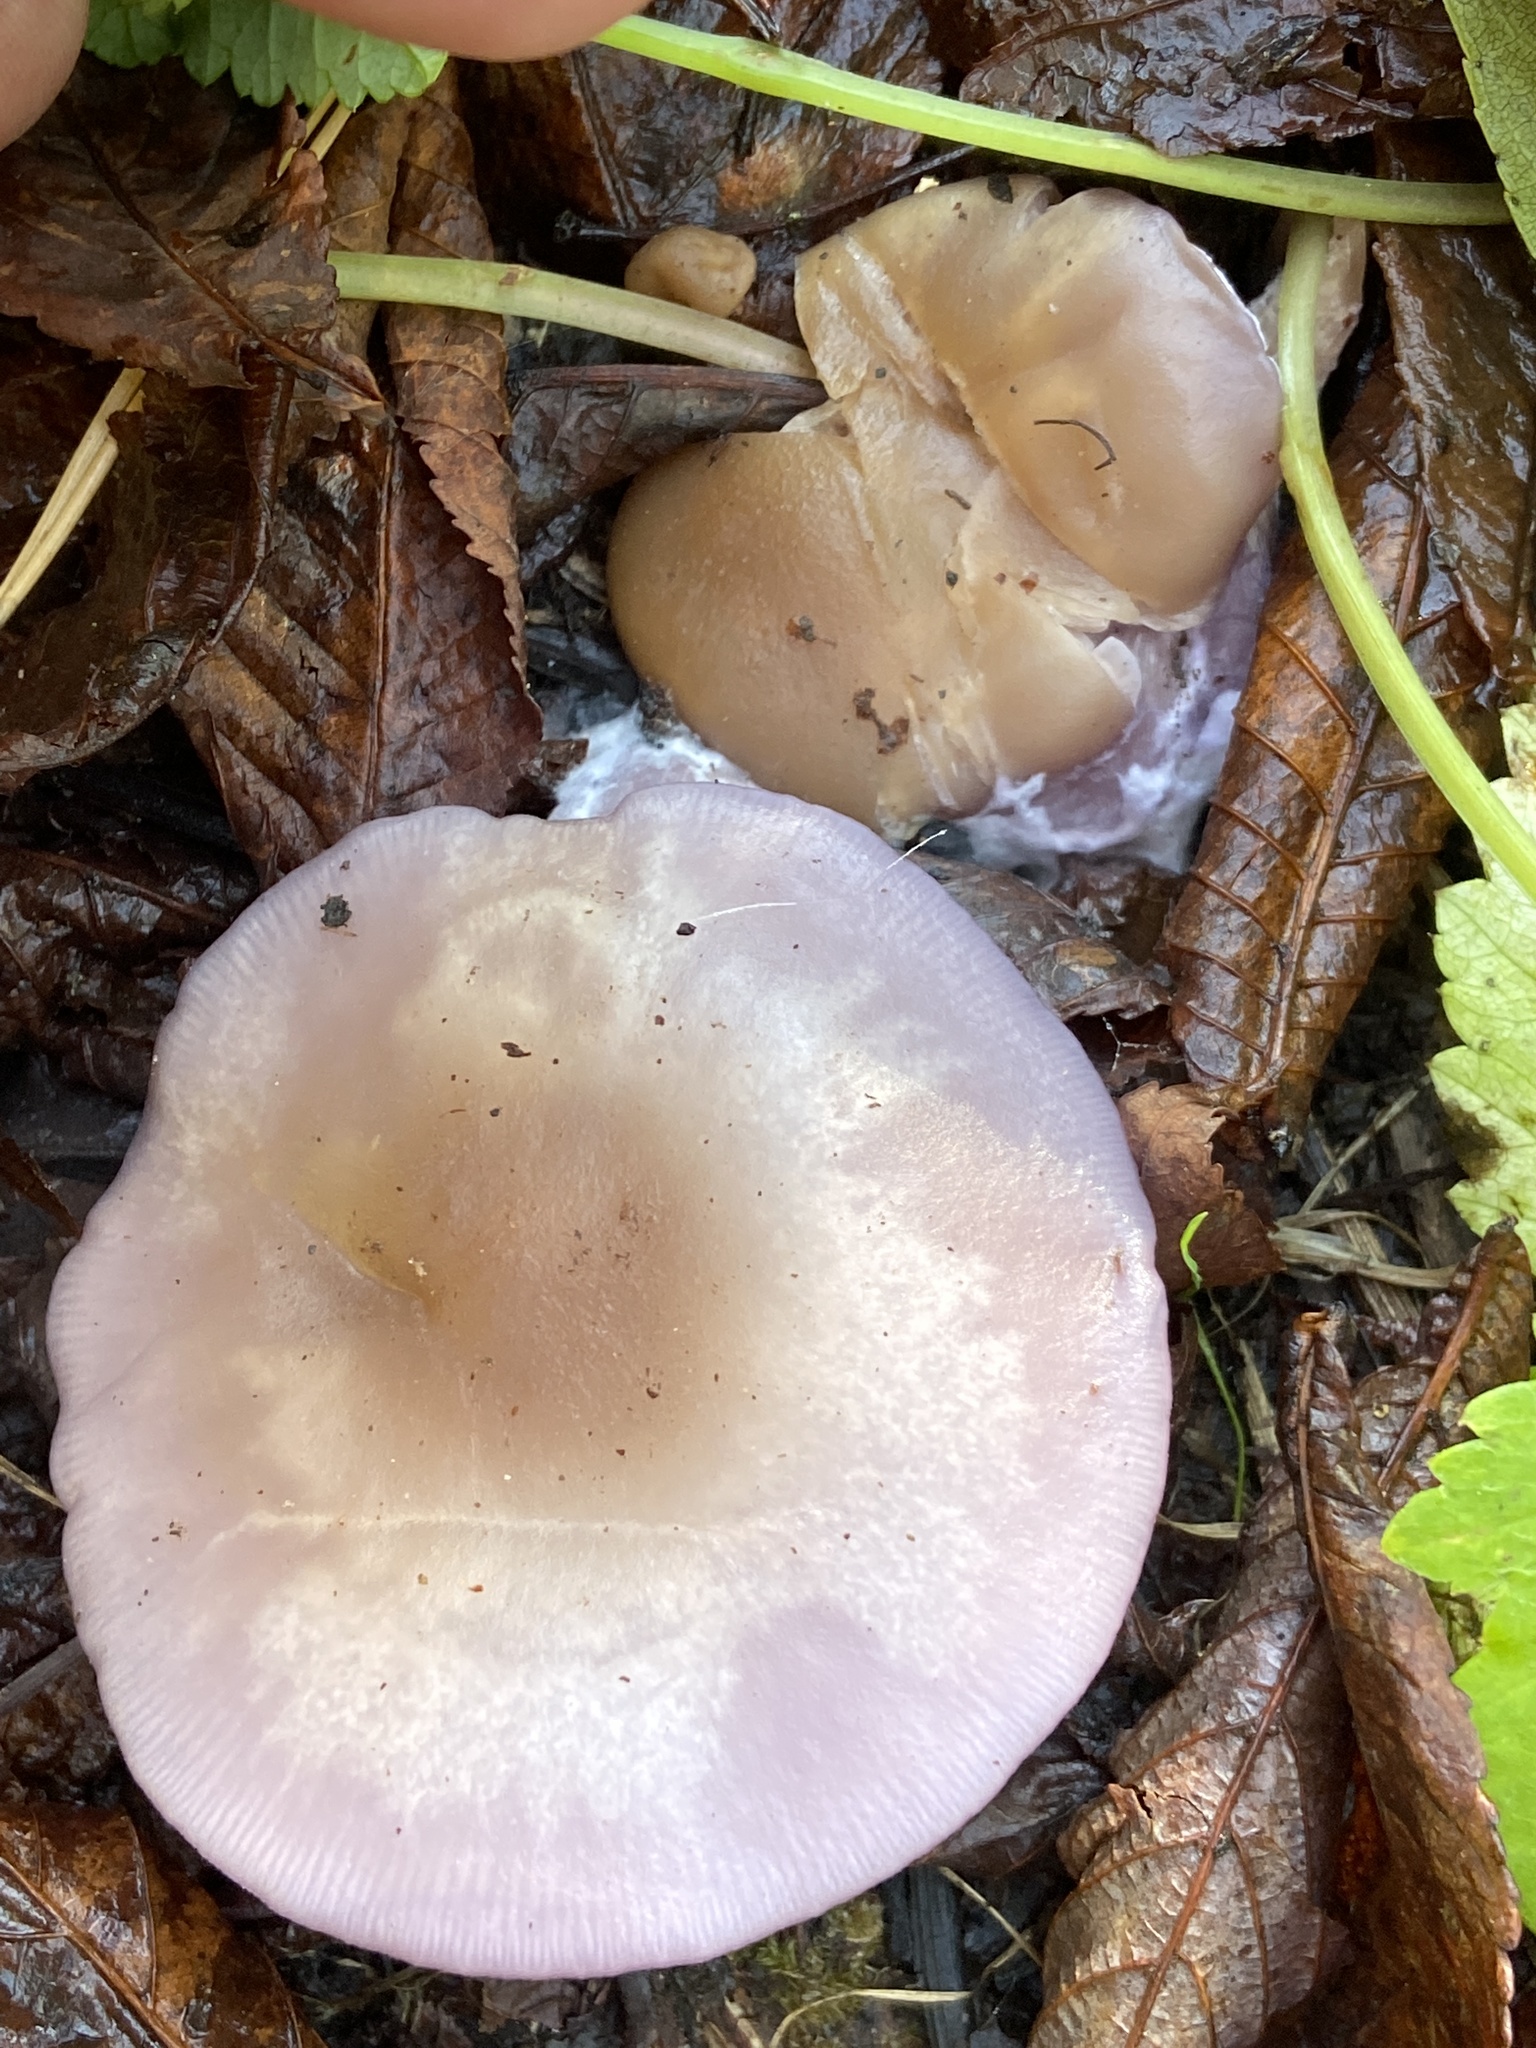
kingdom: Fungi
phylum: Basidiomycota
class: Agaricomycetes
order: Agaricales
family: Tricholomataceae
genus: Collybia
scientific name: Collybia
